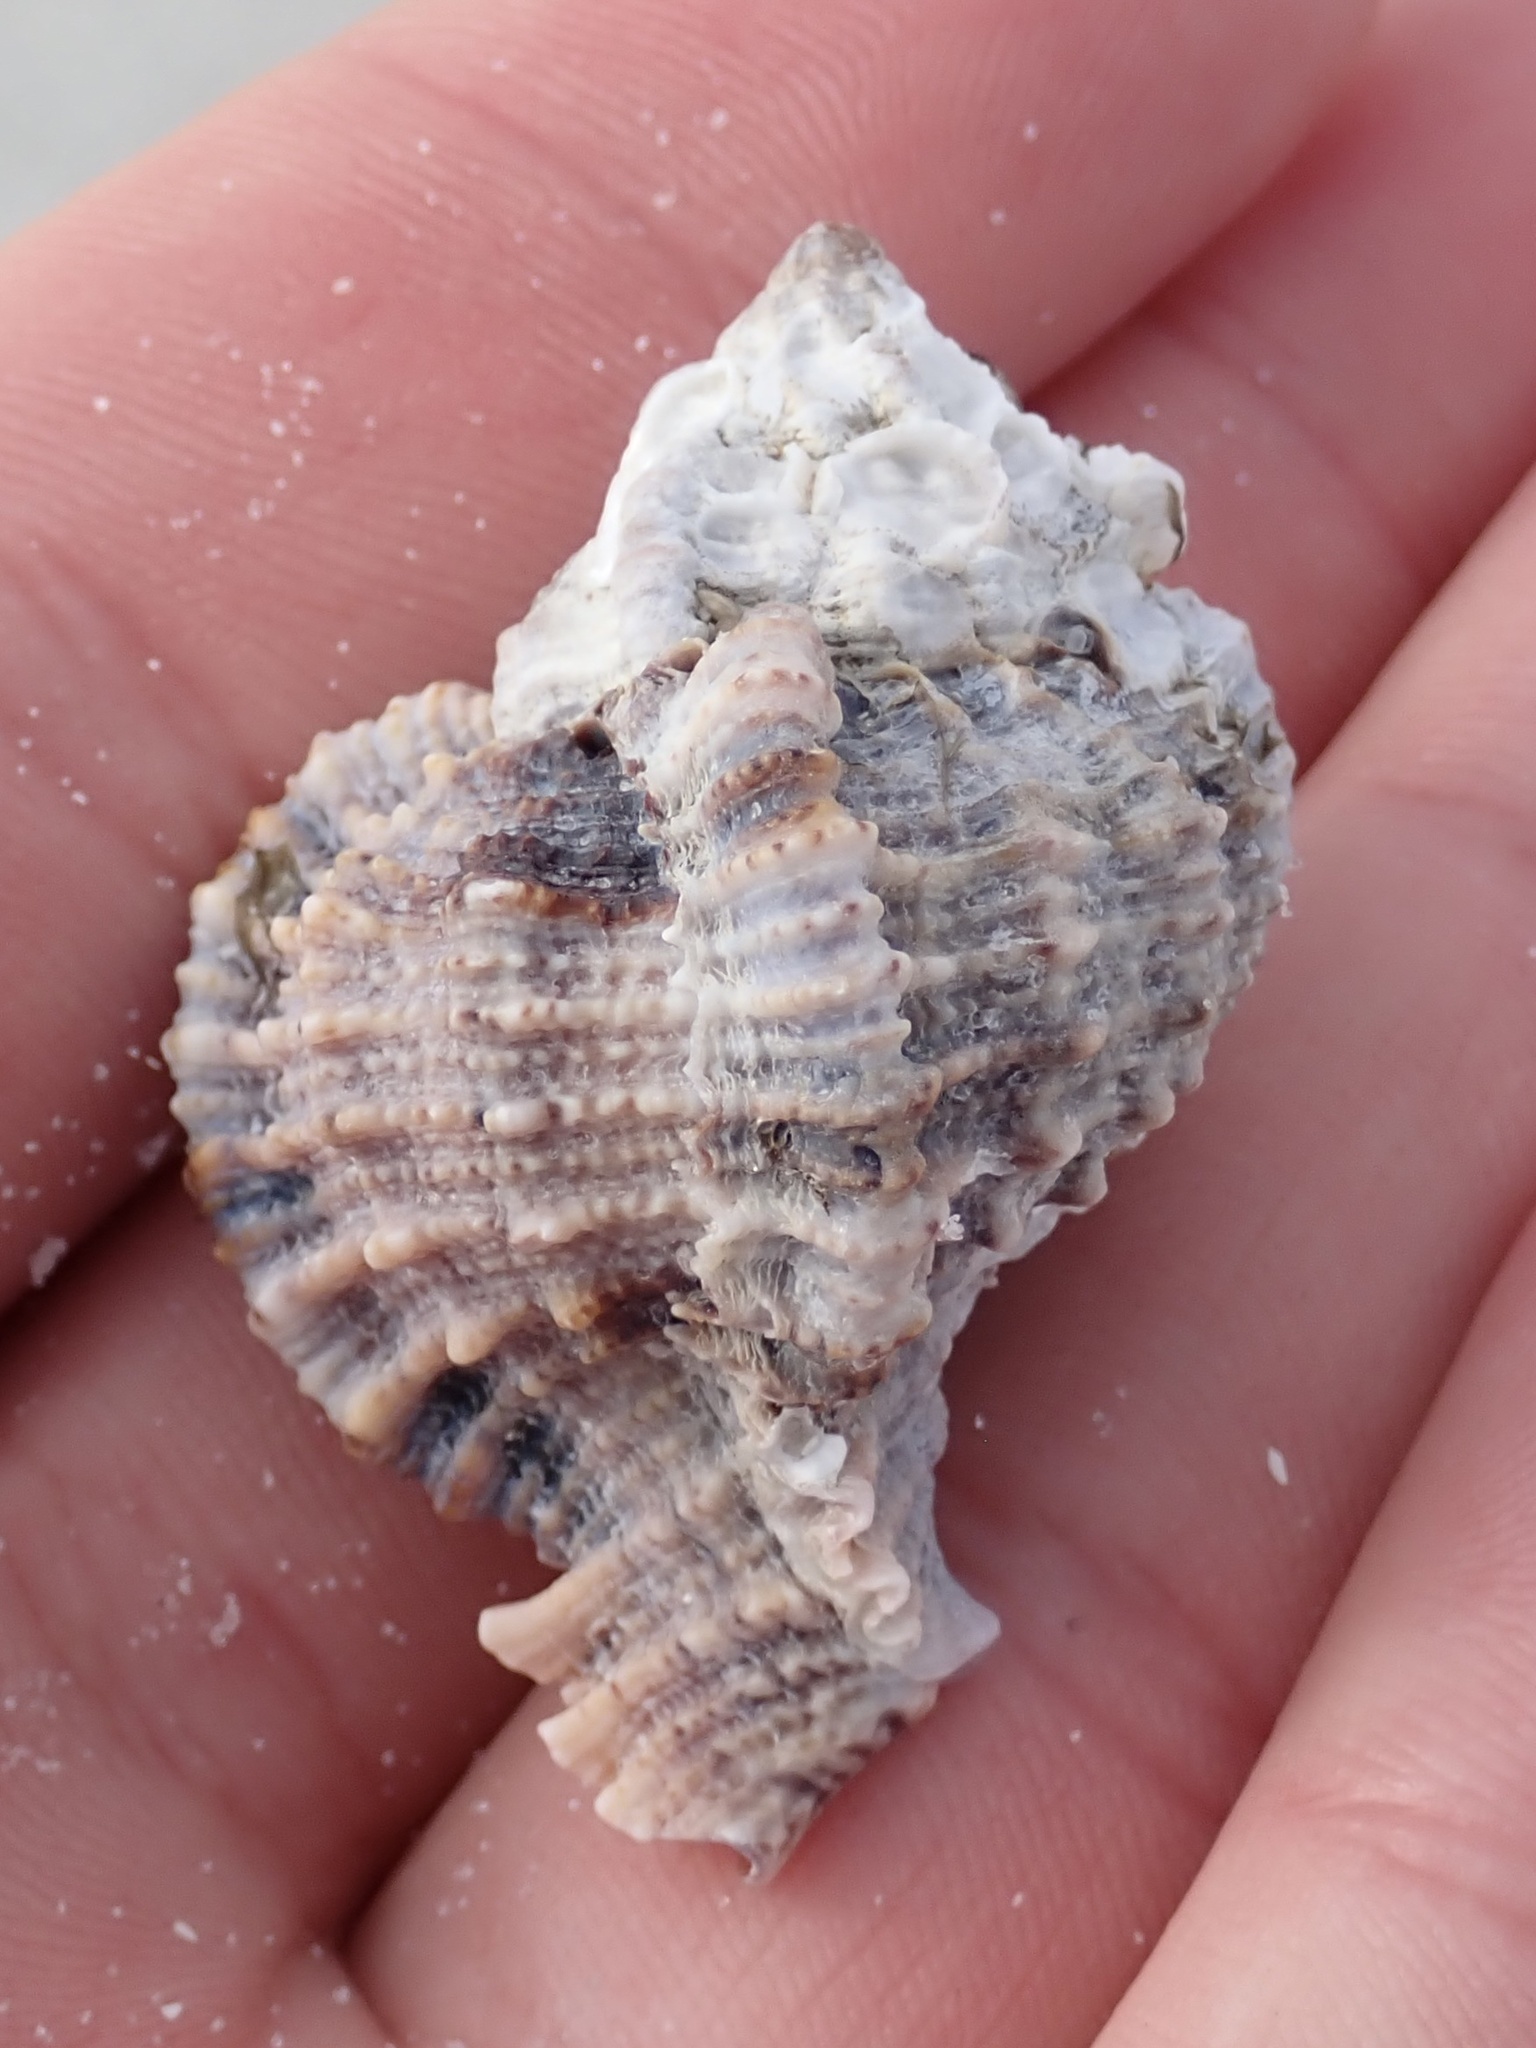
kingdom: Animalia
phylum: Mollusca
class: Gastropoda
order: Neogastropoda
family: Muricidae
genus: Phyllonotus
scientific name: Phyllonotus pomum
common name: Apple murex
